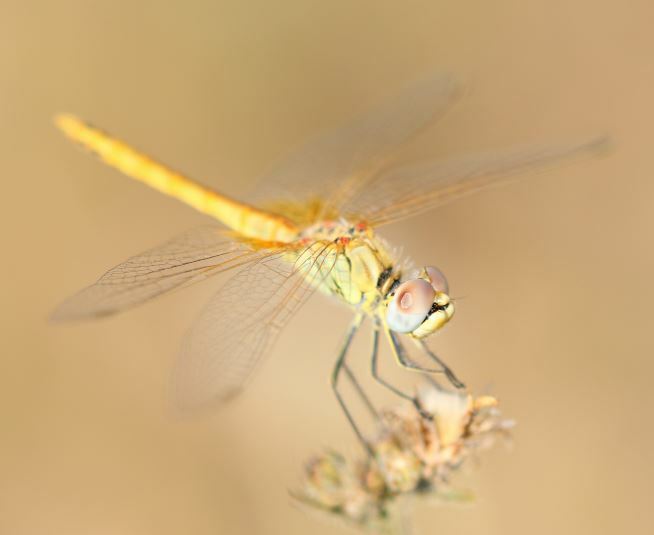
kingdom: Animalia
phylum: Arthropoda
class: Insecta
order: Odonata
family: Libellulidae
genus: Sympetrum
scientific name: Sympetrum fonscolombii
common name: Red-veined darter
